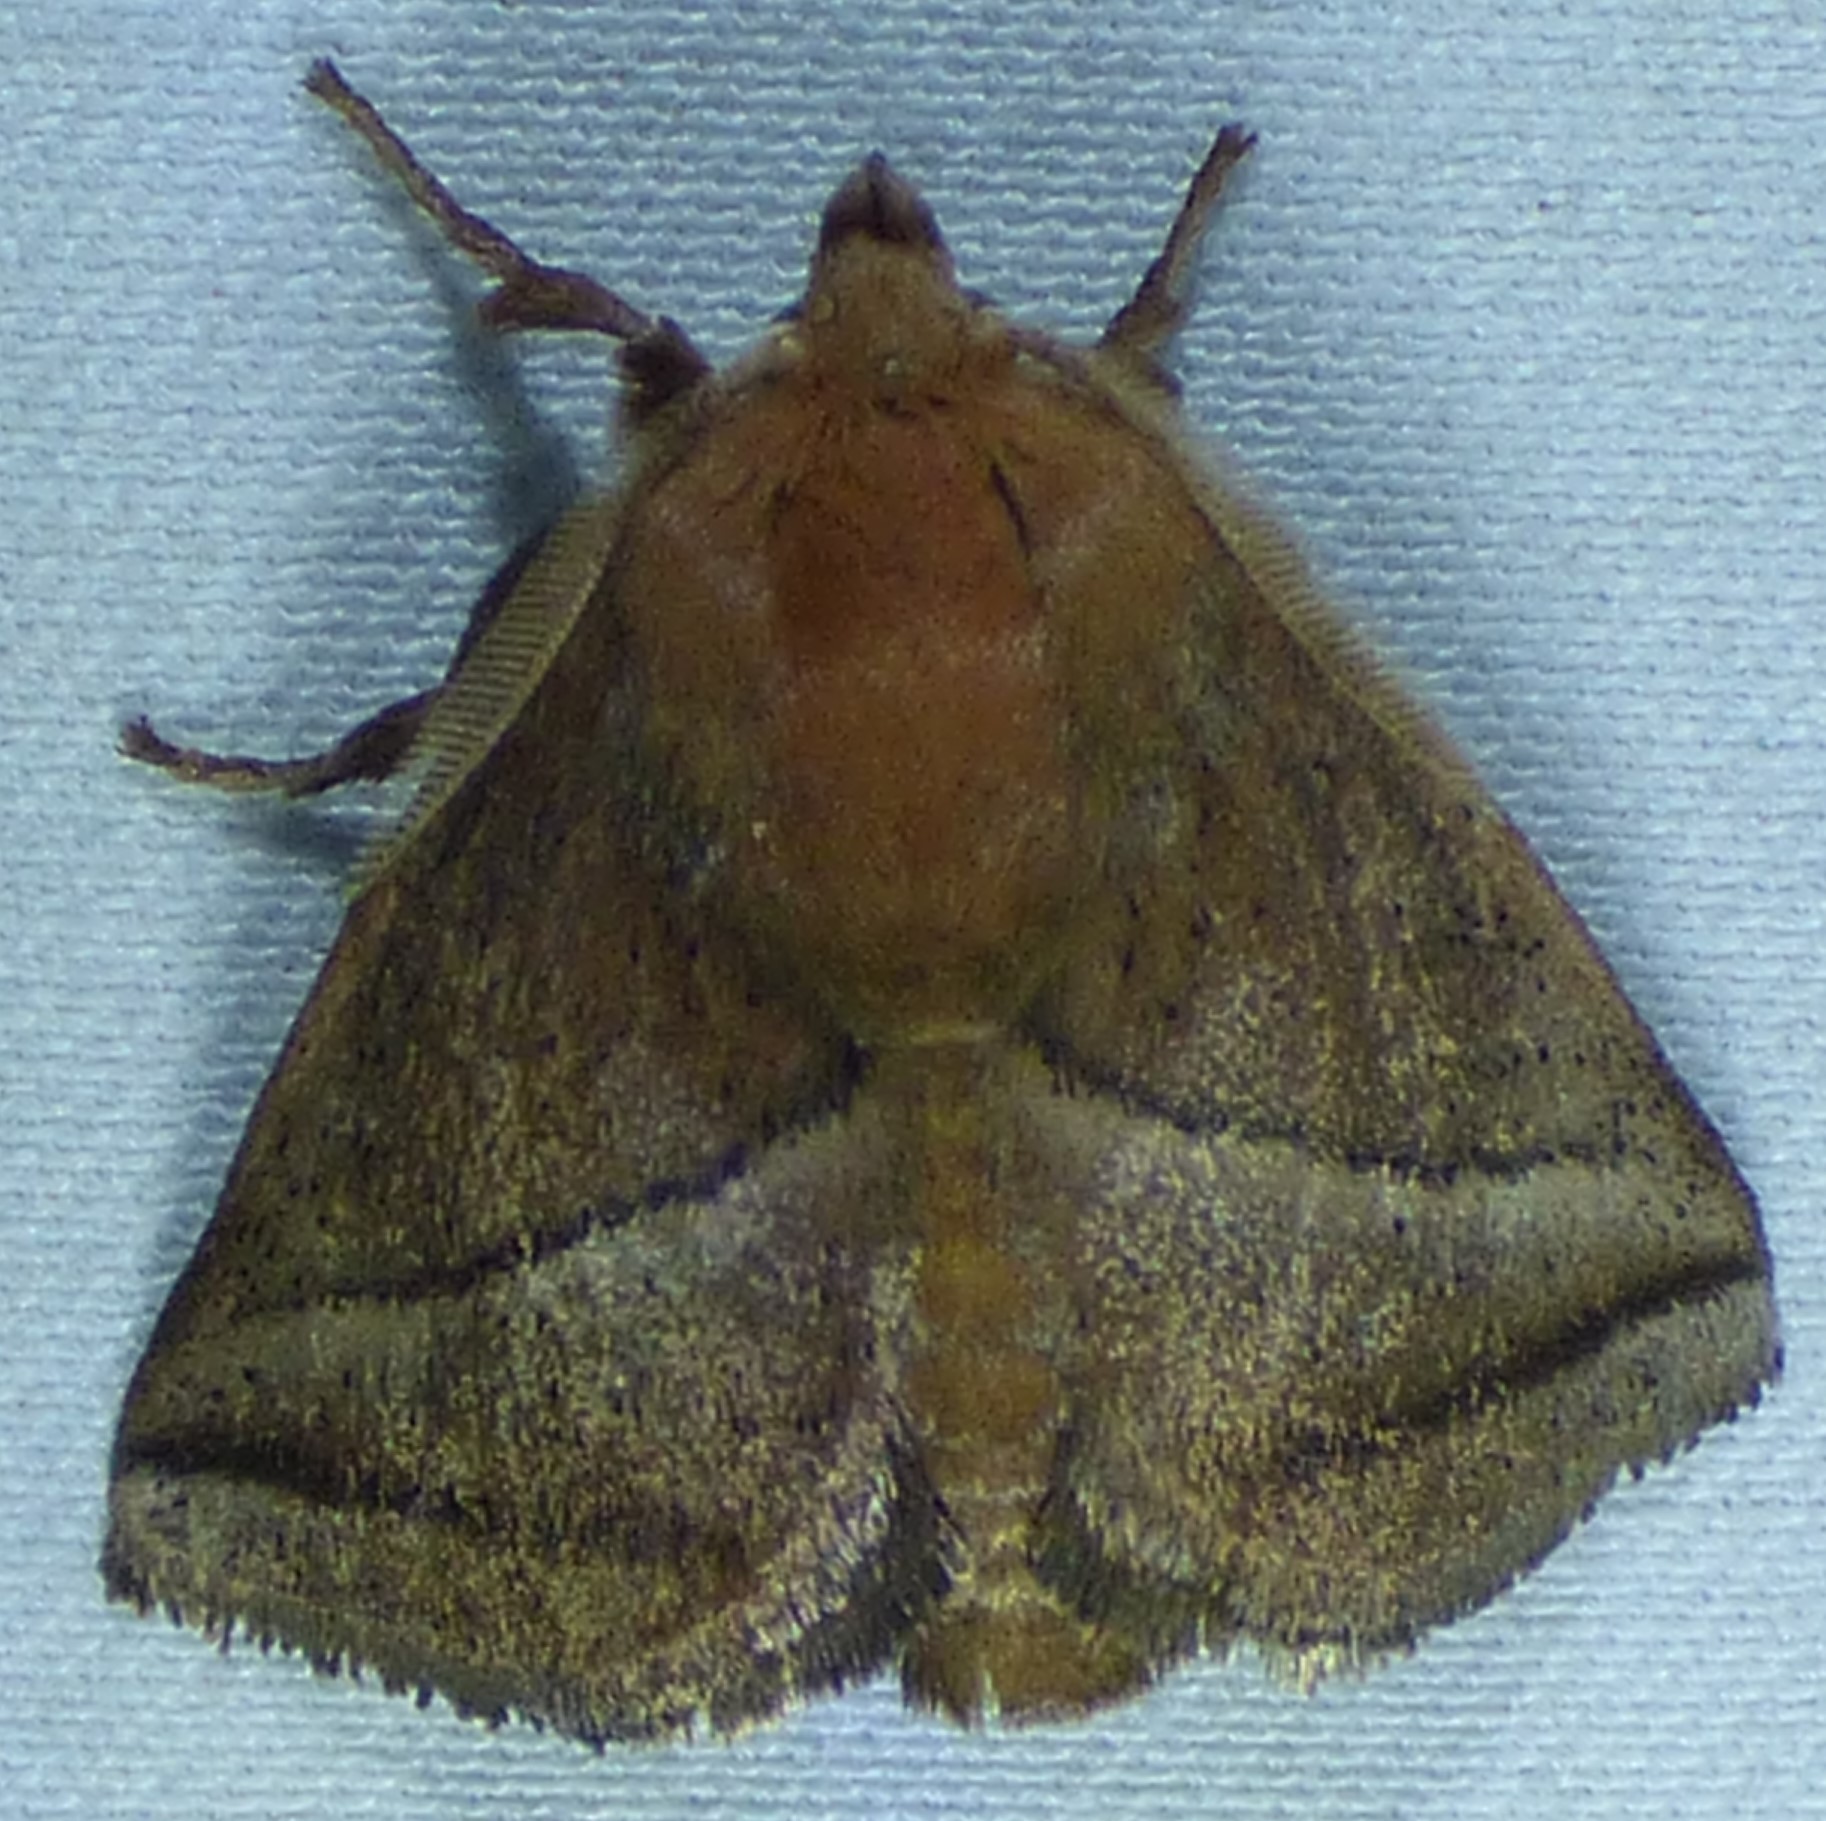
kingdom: Animalia
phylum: Arthropoda
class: Insecta
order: Lepidoptera
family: Limacodidae
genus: Natada
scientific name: Natada nasoni
